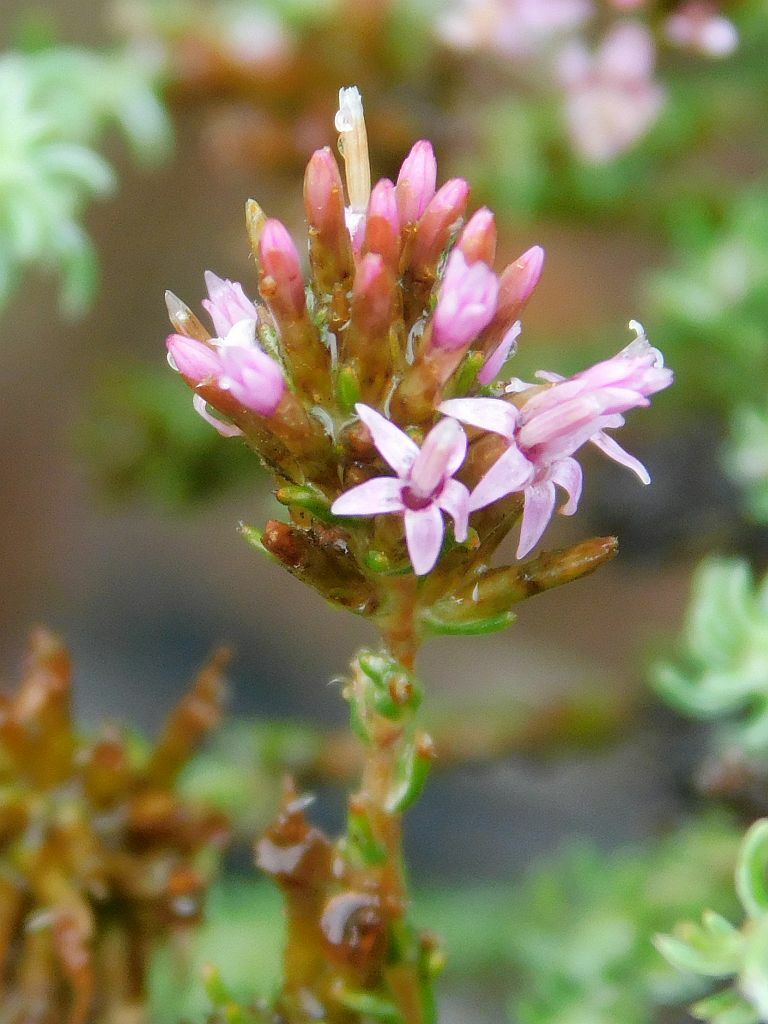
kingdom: Plantae
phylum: Tracheophyta
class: Magnoliopsida
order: Asterales
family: Asteraceae
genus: Stoebe
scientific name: Stoebe fusca
